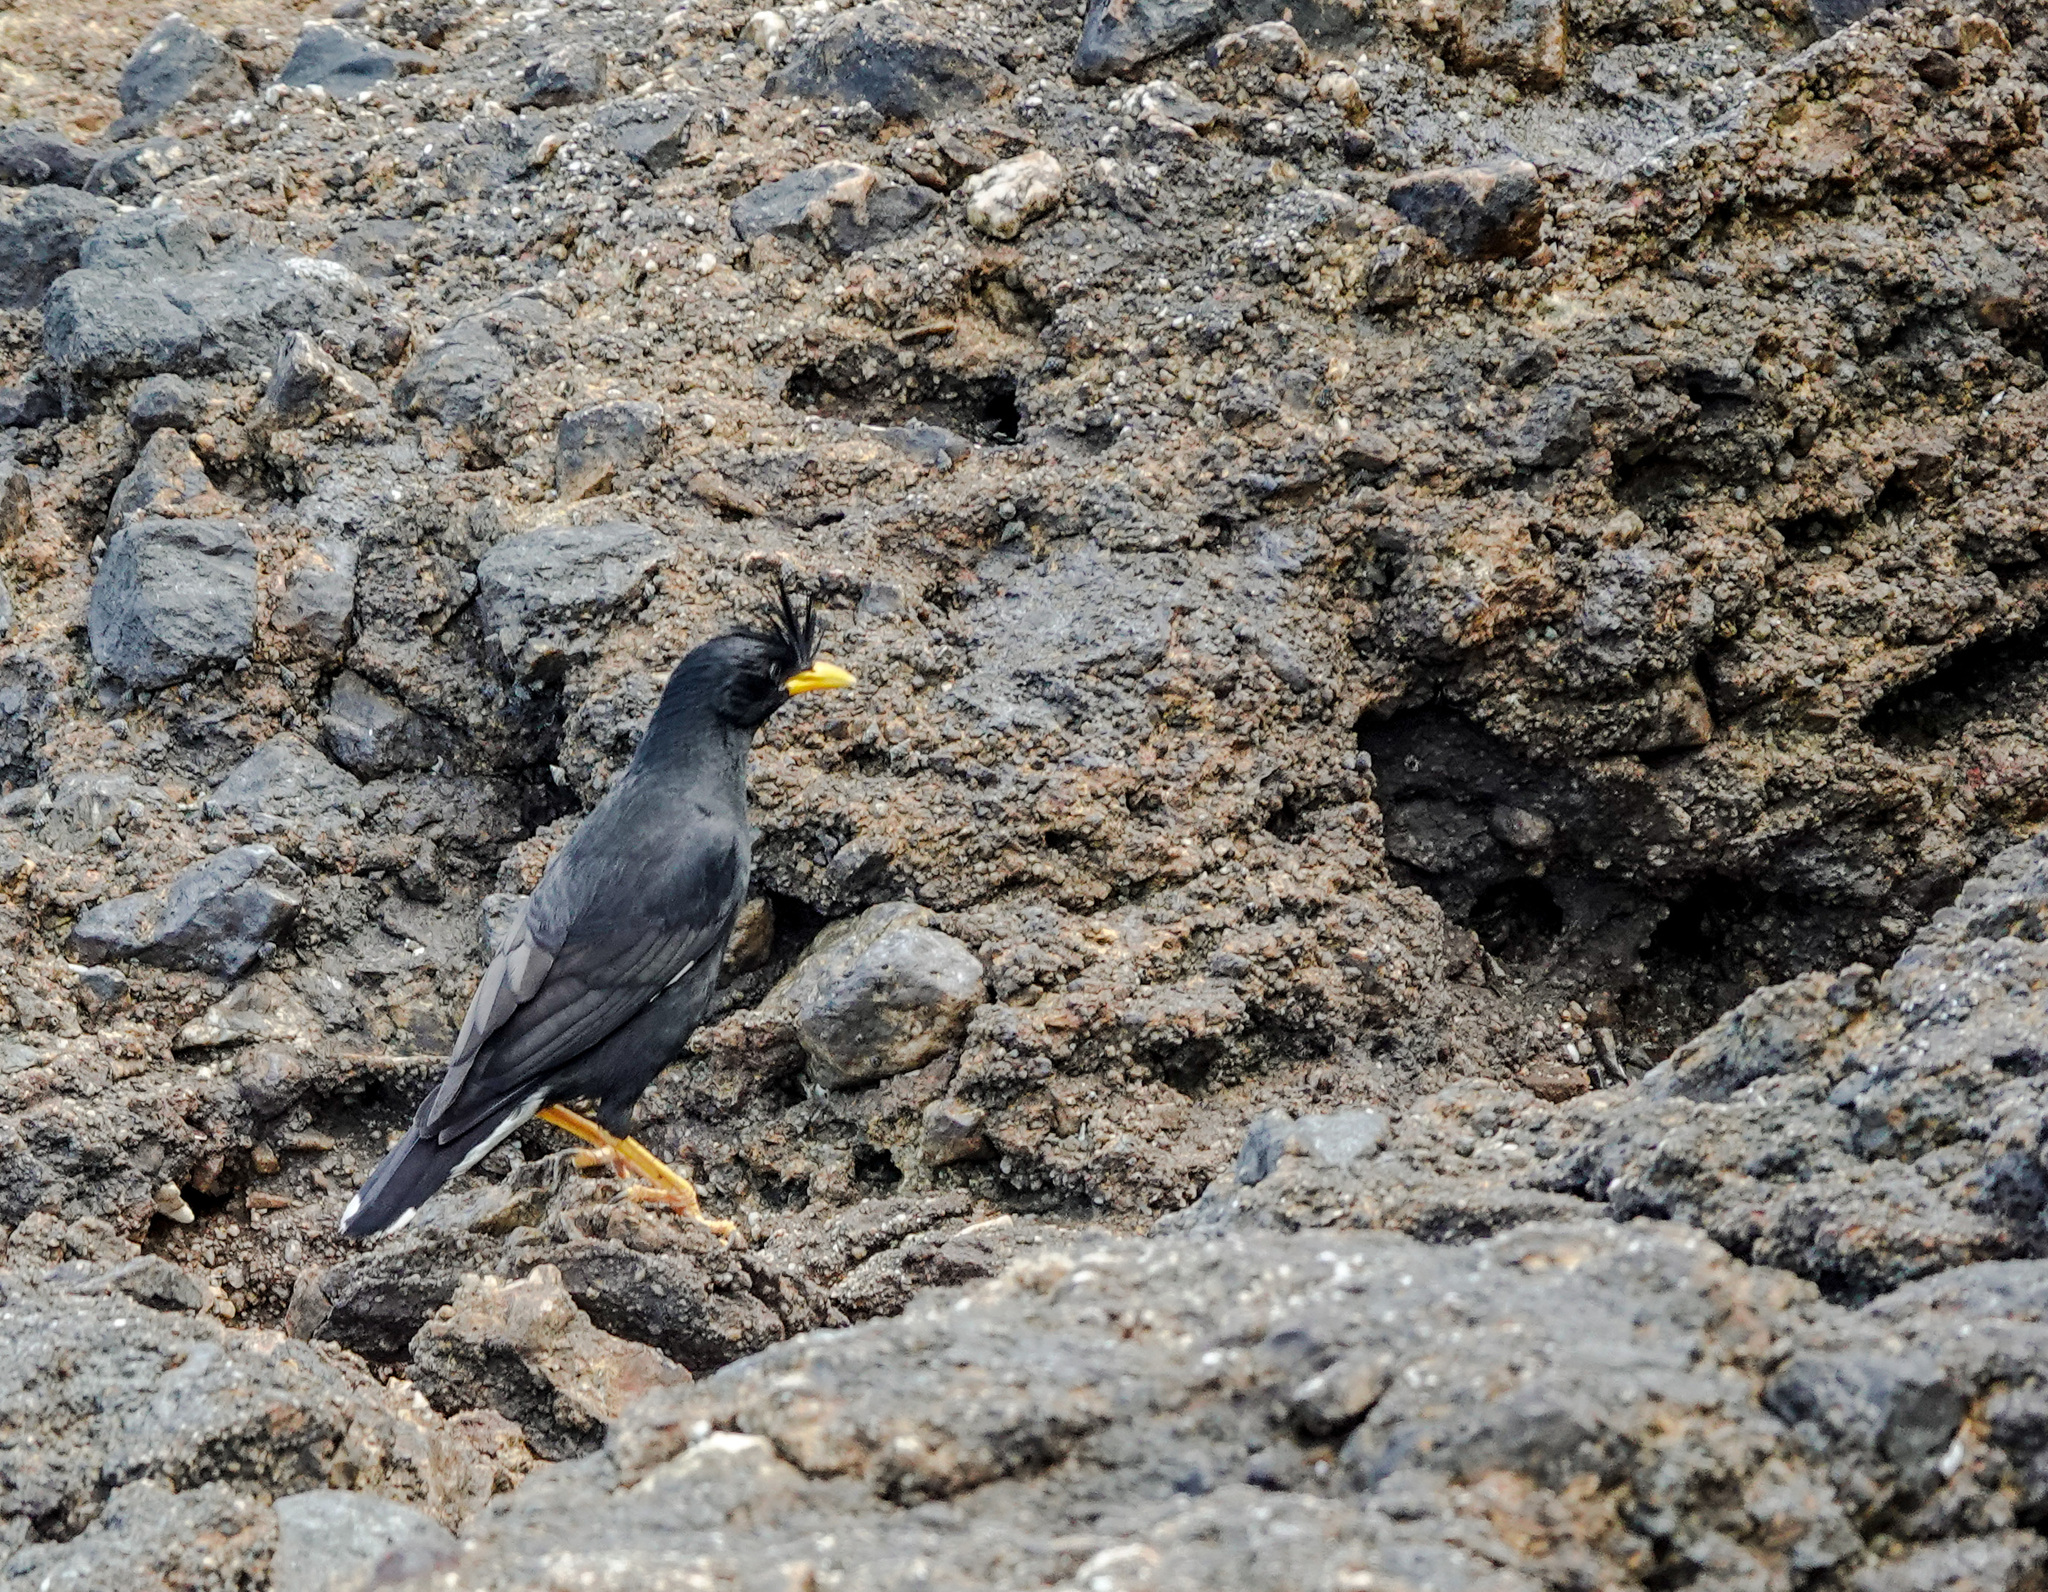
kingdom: Animalia
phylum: Chordata
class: Aves
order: Passeriformes
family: Sturnidae
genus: Acridotheres
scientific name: Acridotheres grandis
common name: Great myna
